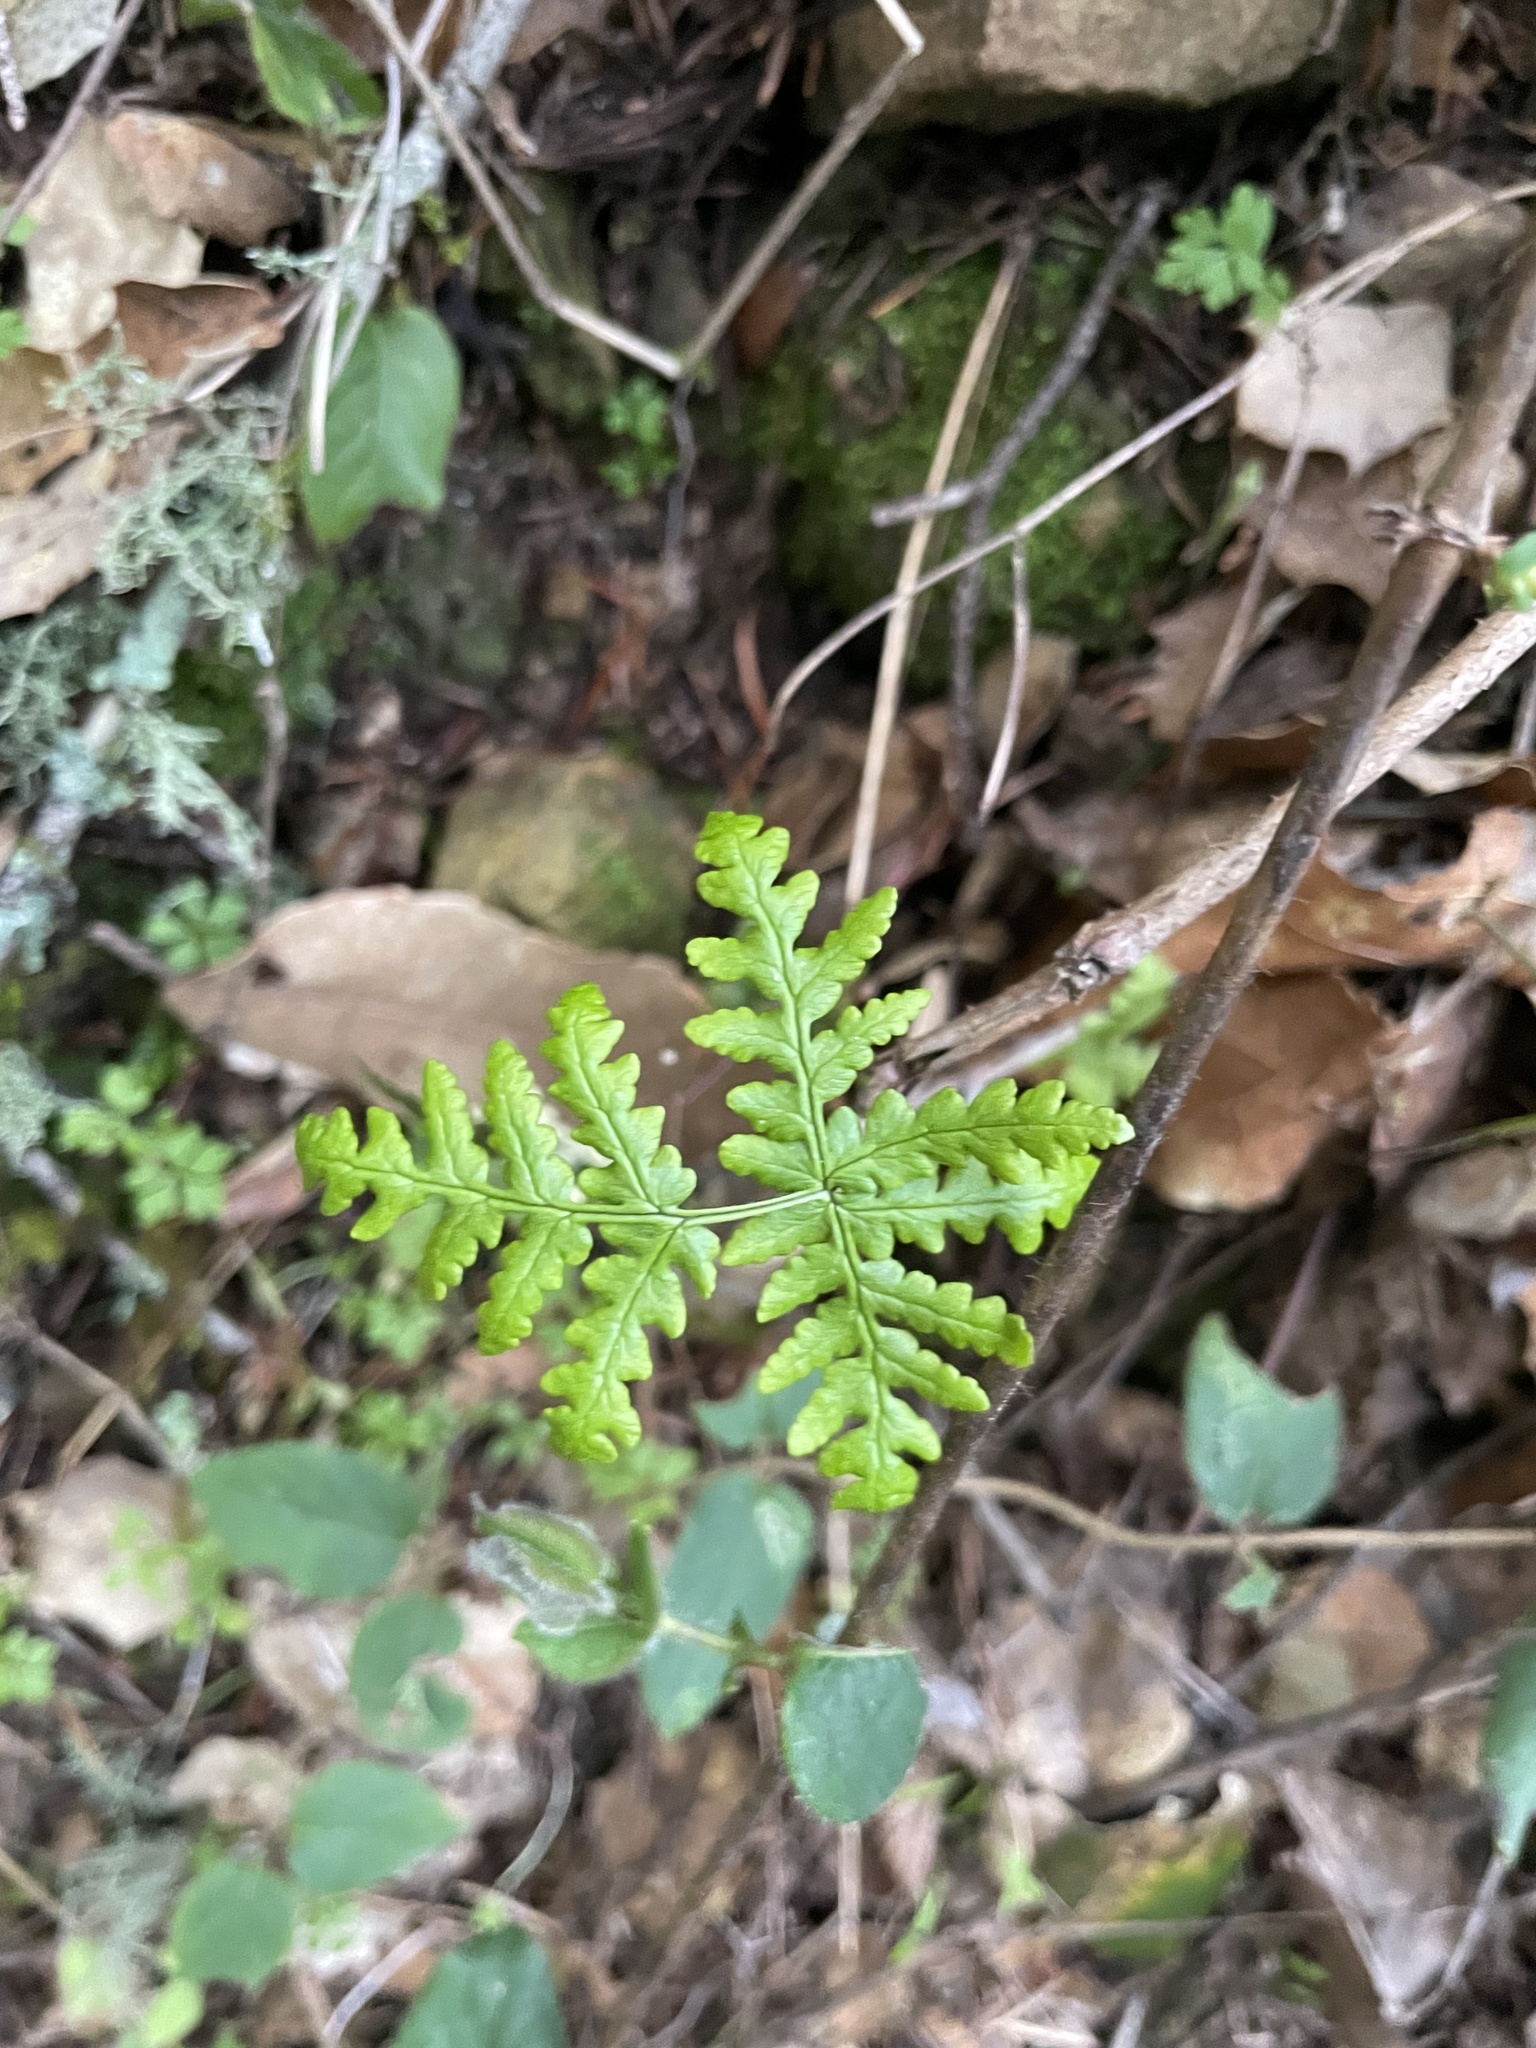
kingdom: Plantae
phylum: Tracheophyta
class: Polypodiopsida
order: Polypodiales
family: Pteridaceae
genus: Pentagramma
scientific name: Pentagramma triangularis
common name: Gold fern
